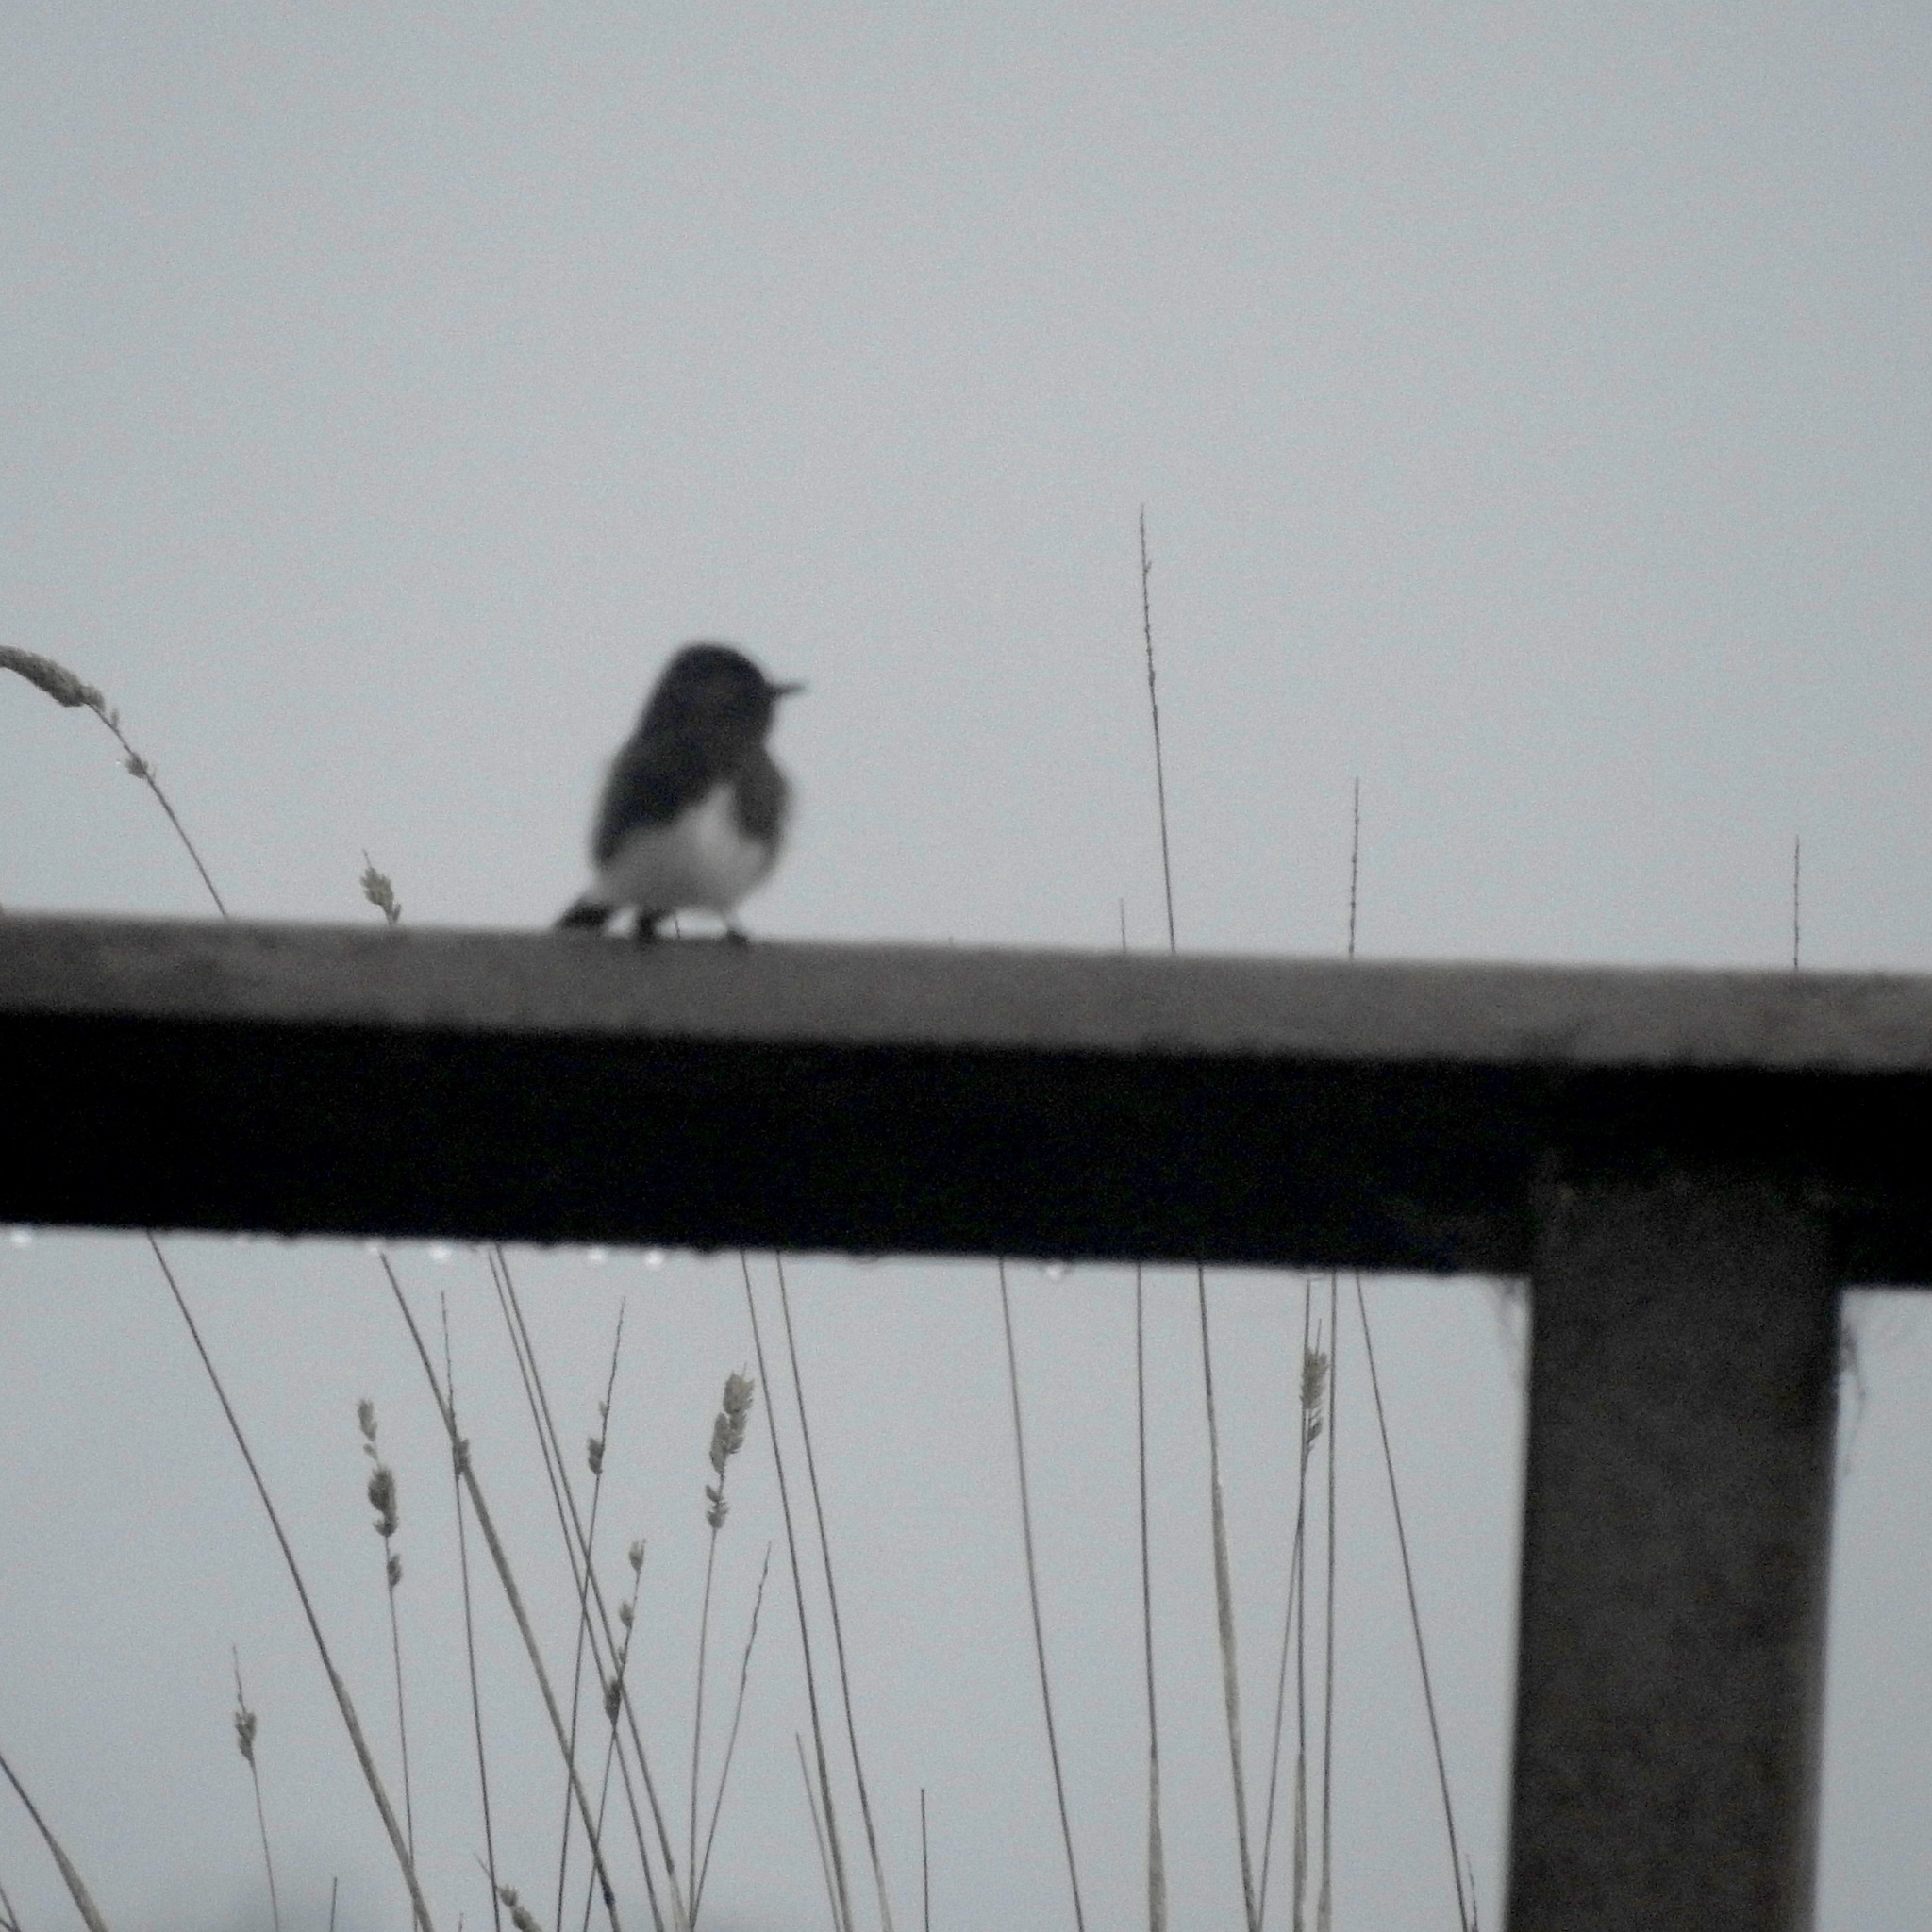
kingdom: Animalia
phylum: Chordata
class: Aves
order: Passeriformes
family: Tyrannidae
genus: Sayornis
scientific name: Sayornis nigricans
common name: Black phoebe
